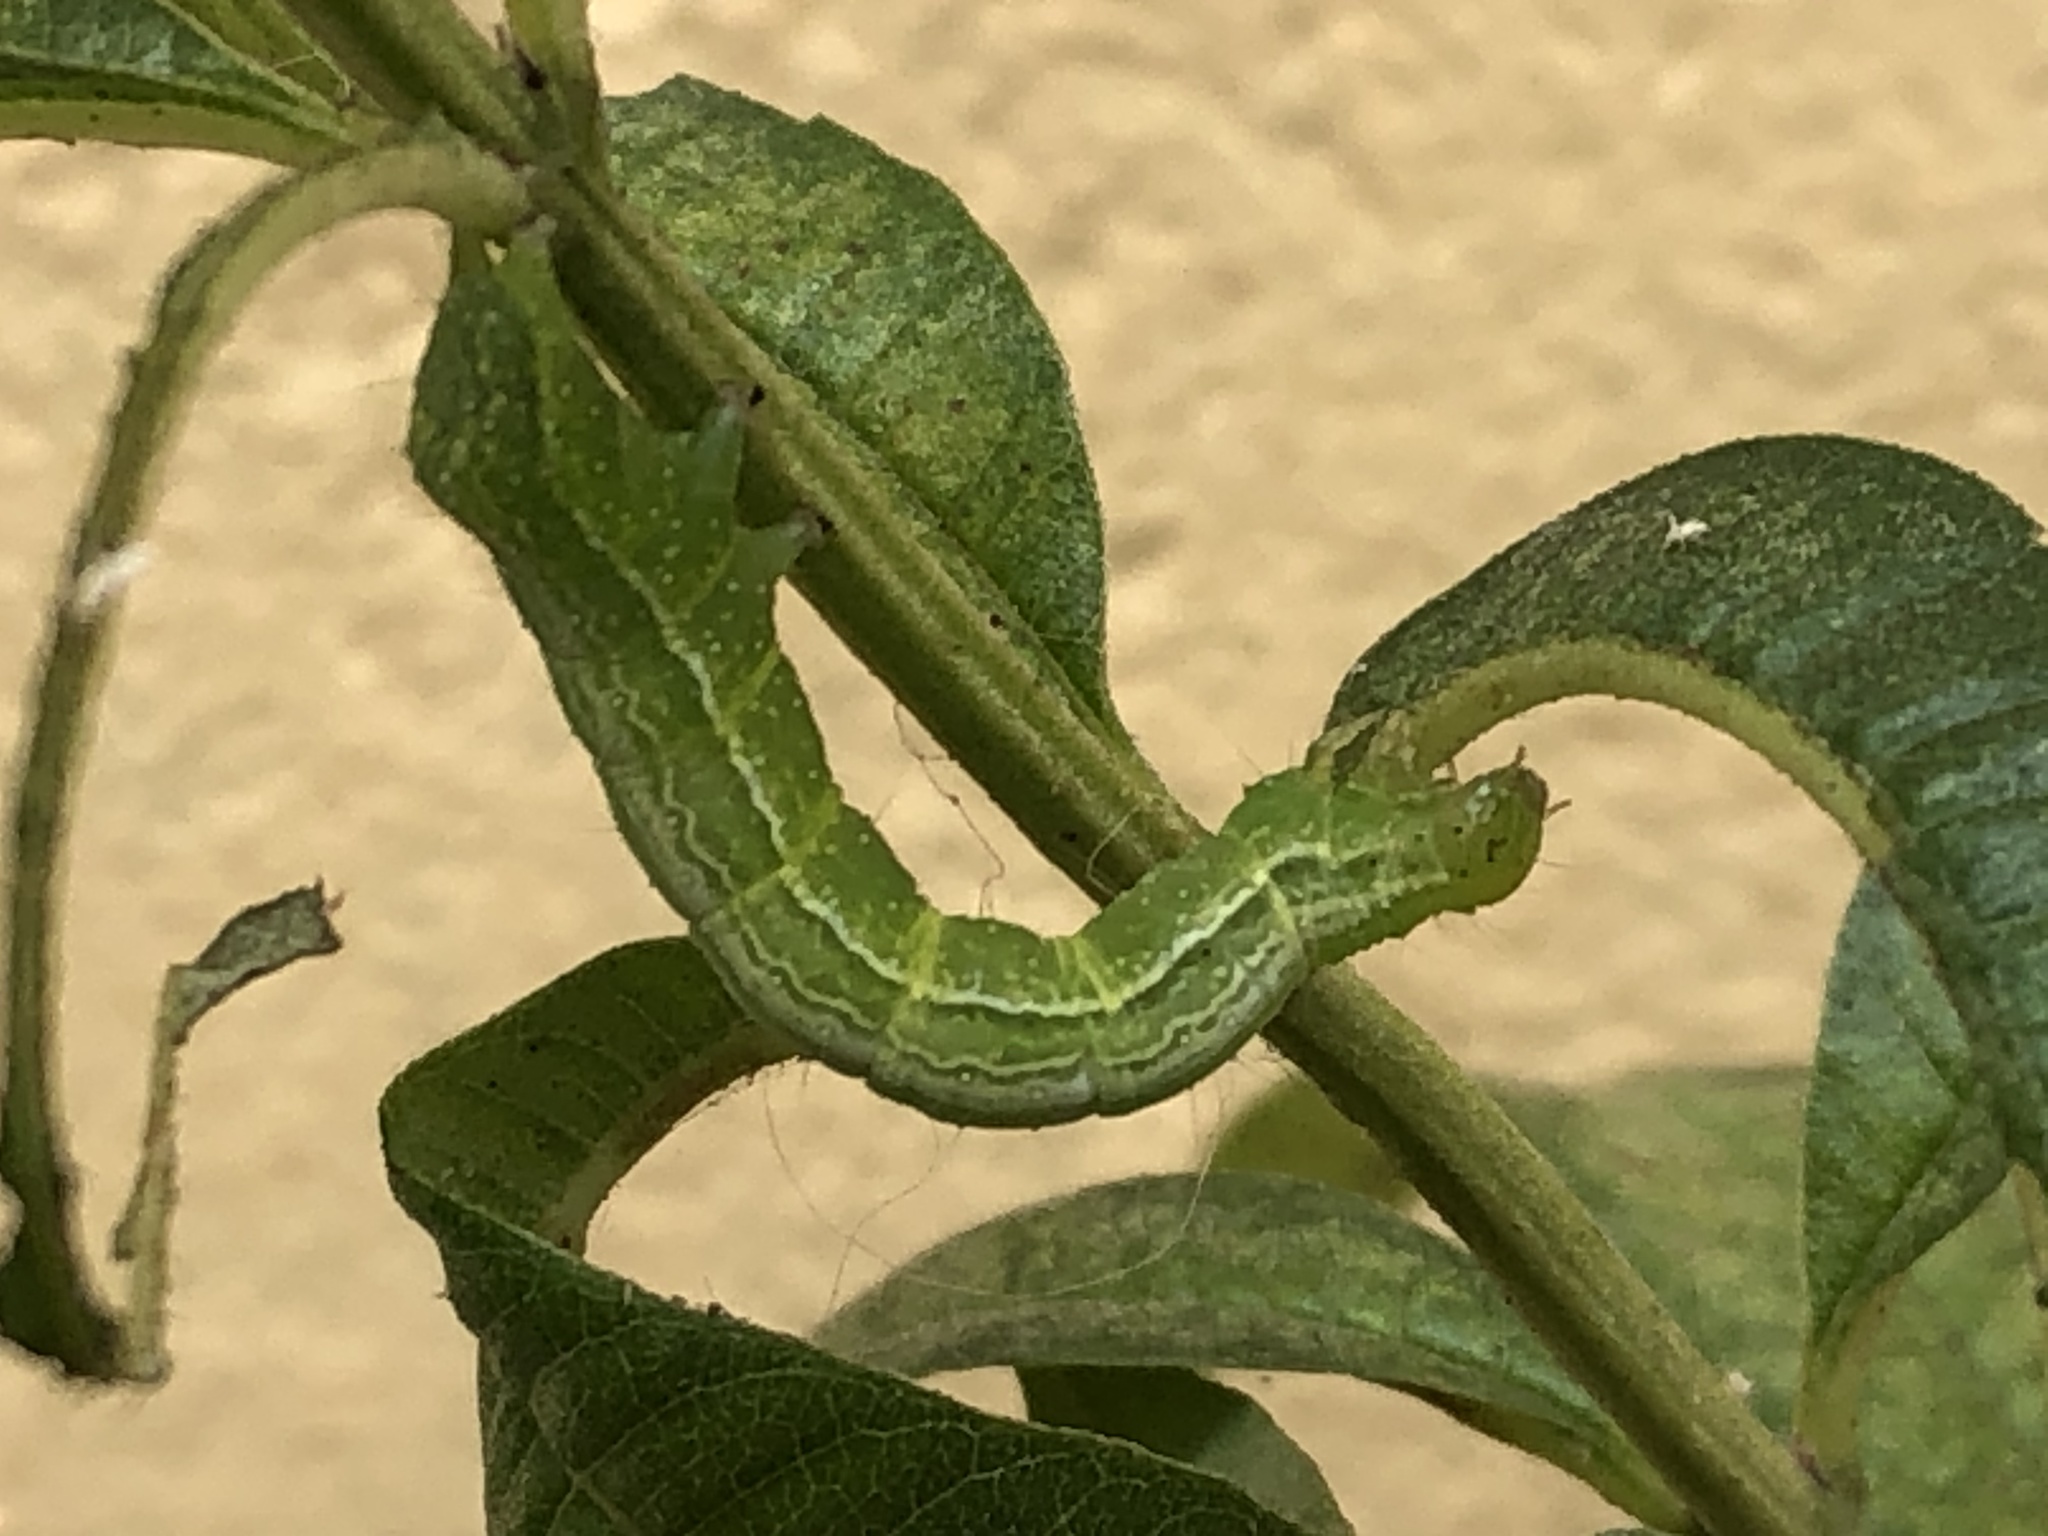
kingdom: Animalia
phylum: Arthropoda
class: Insecta
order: Lepidoptera
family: Noctuidae
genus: Chrysodeixis
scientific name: Chrysodeixis includens
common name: Cutworm moth
